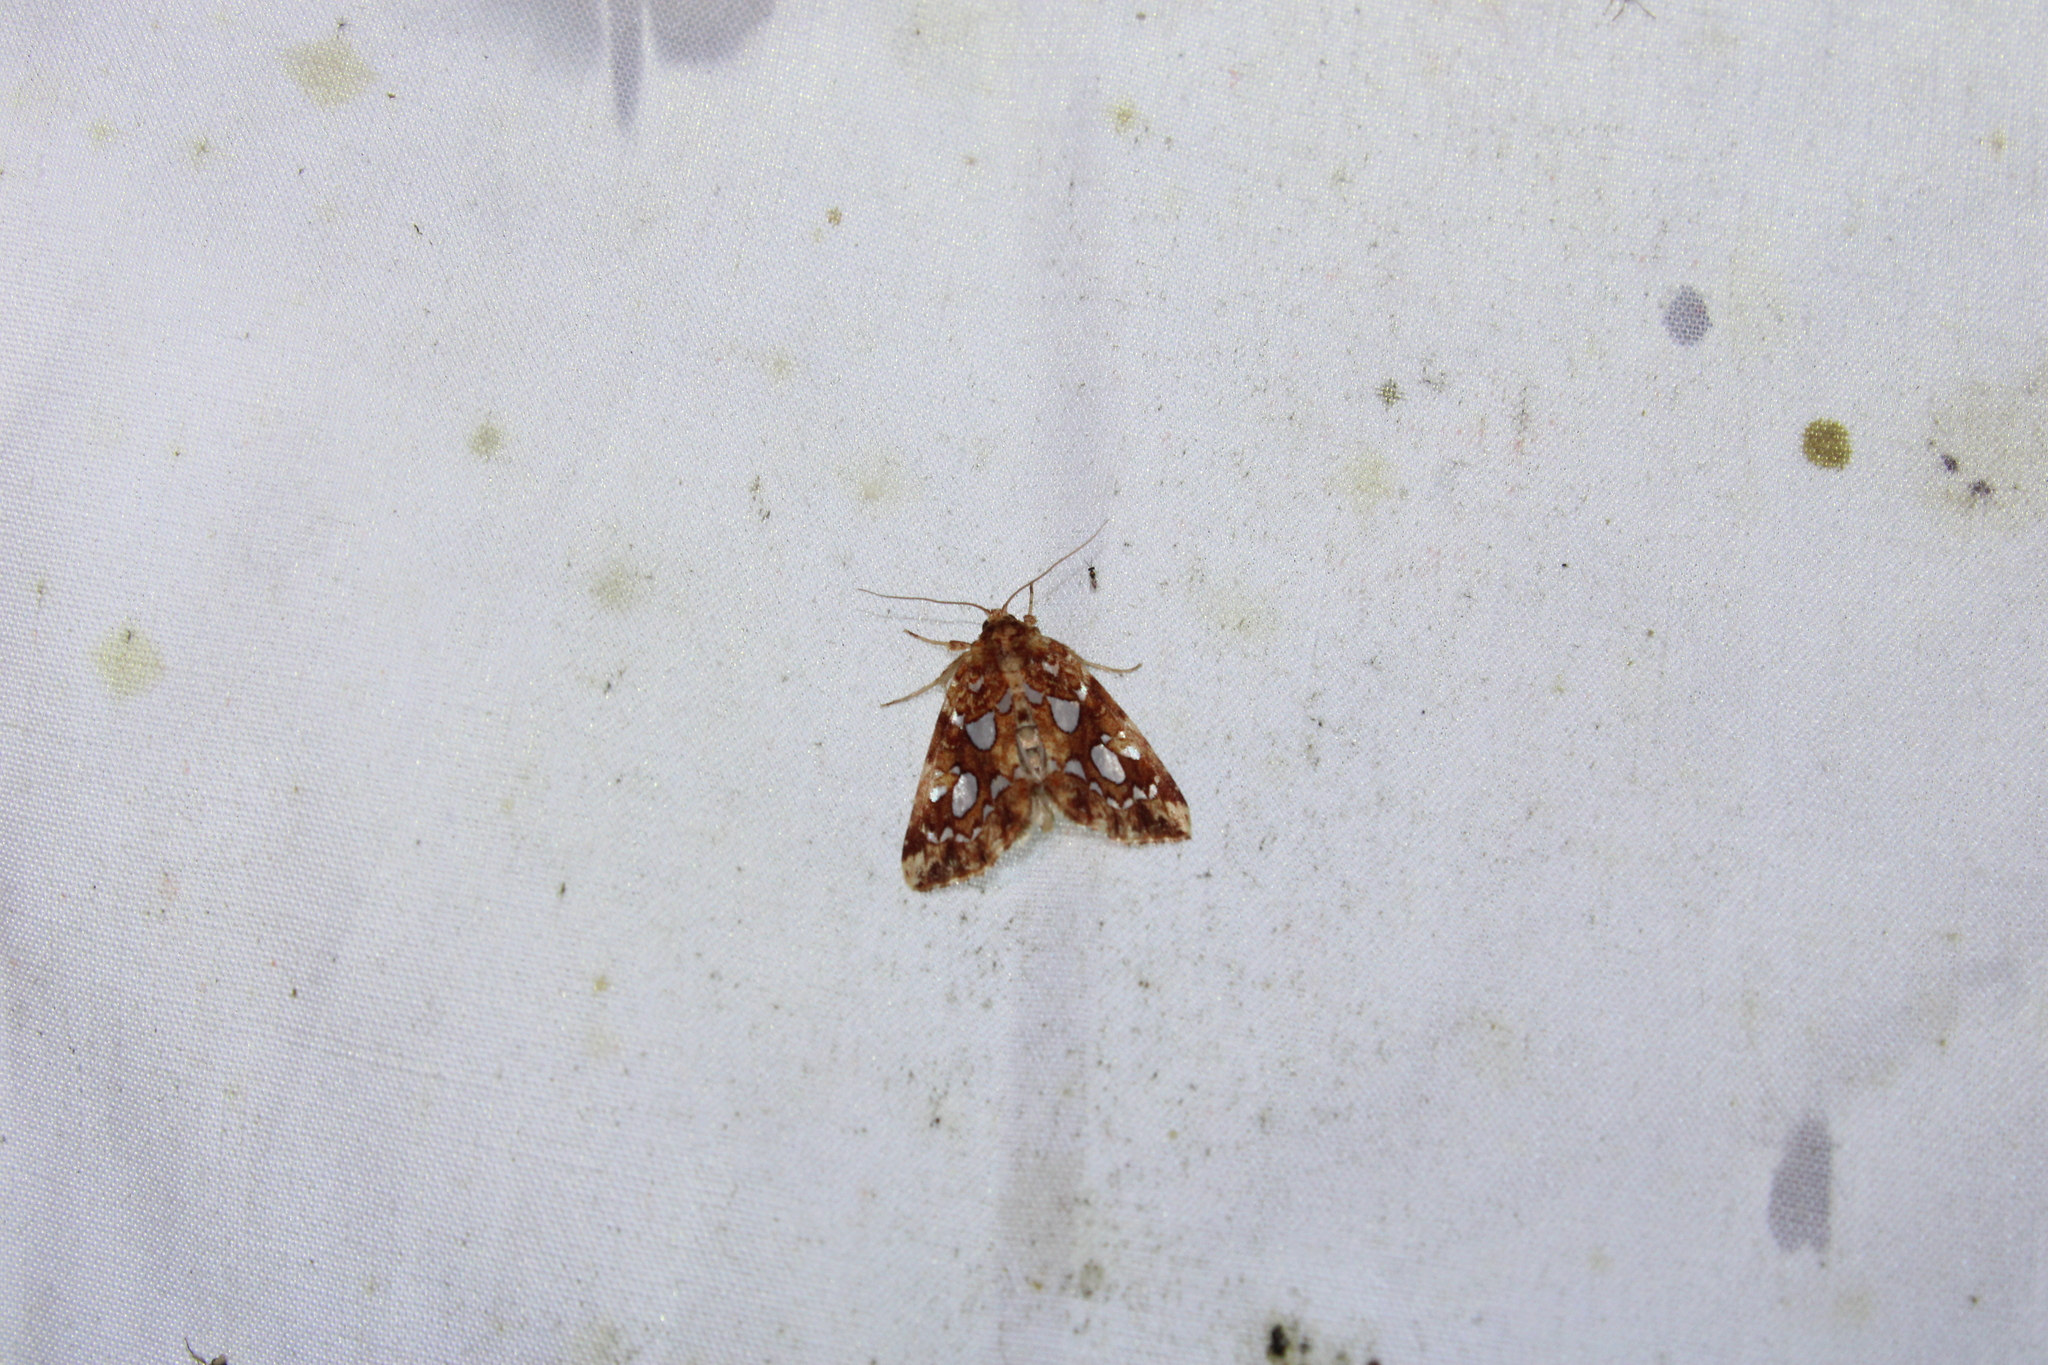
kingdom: Animalia
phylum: Arthropoda
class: Insecta
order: Lepidoptera
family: Noctuidae
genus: Callopistria
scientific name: Callopistria cordata
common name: Silver-spotted fern moth
